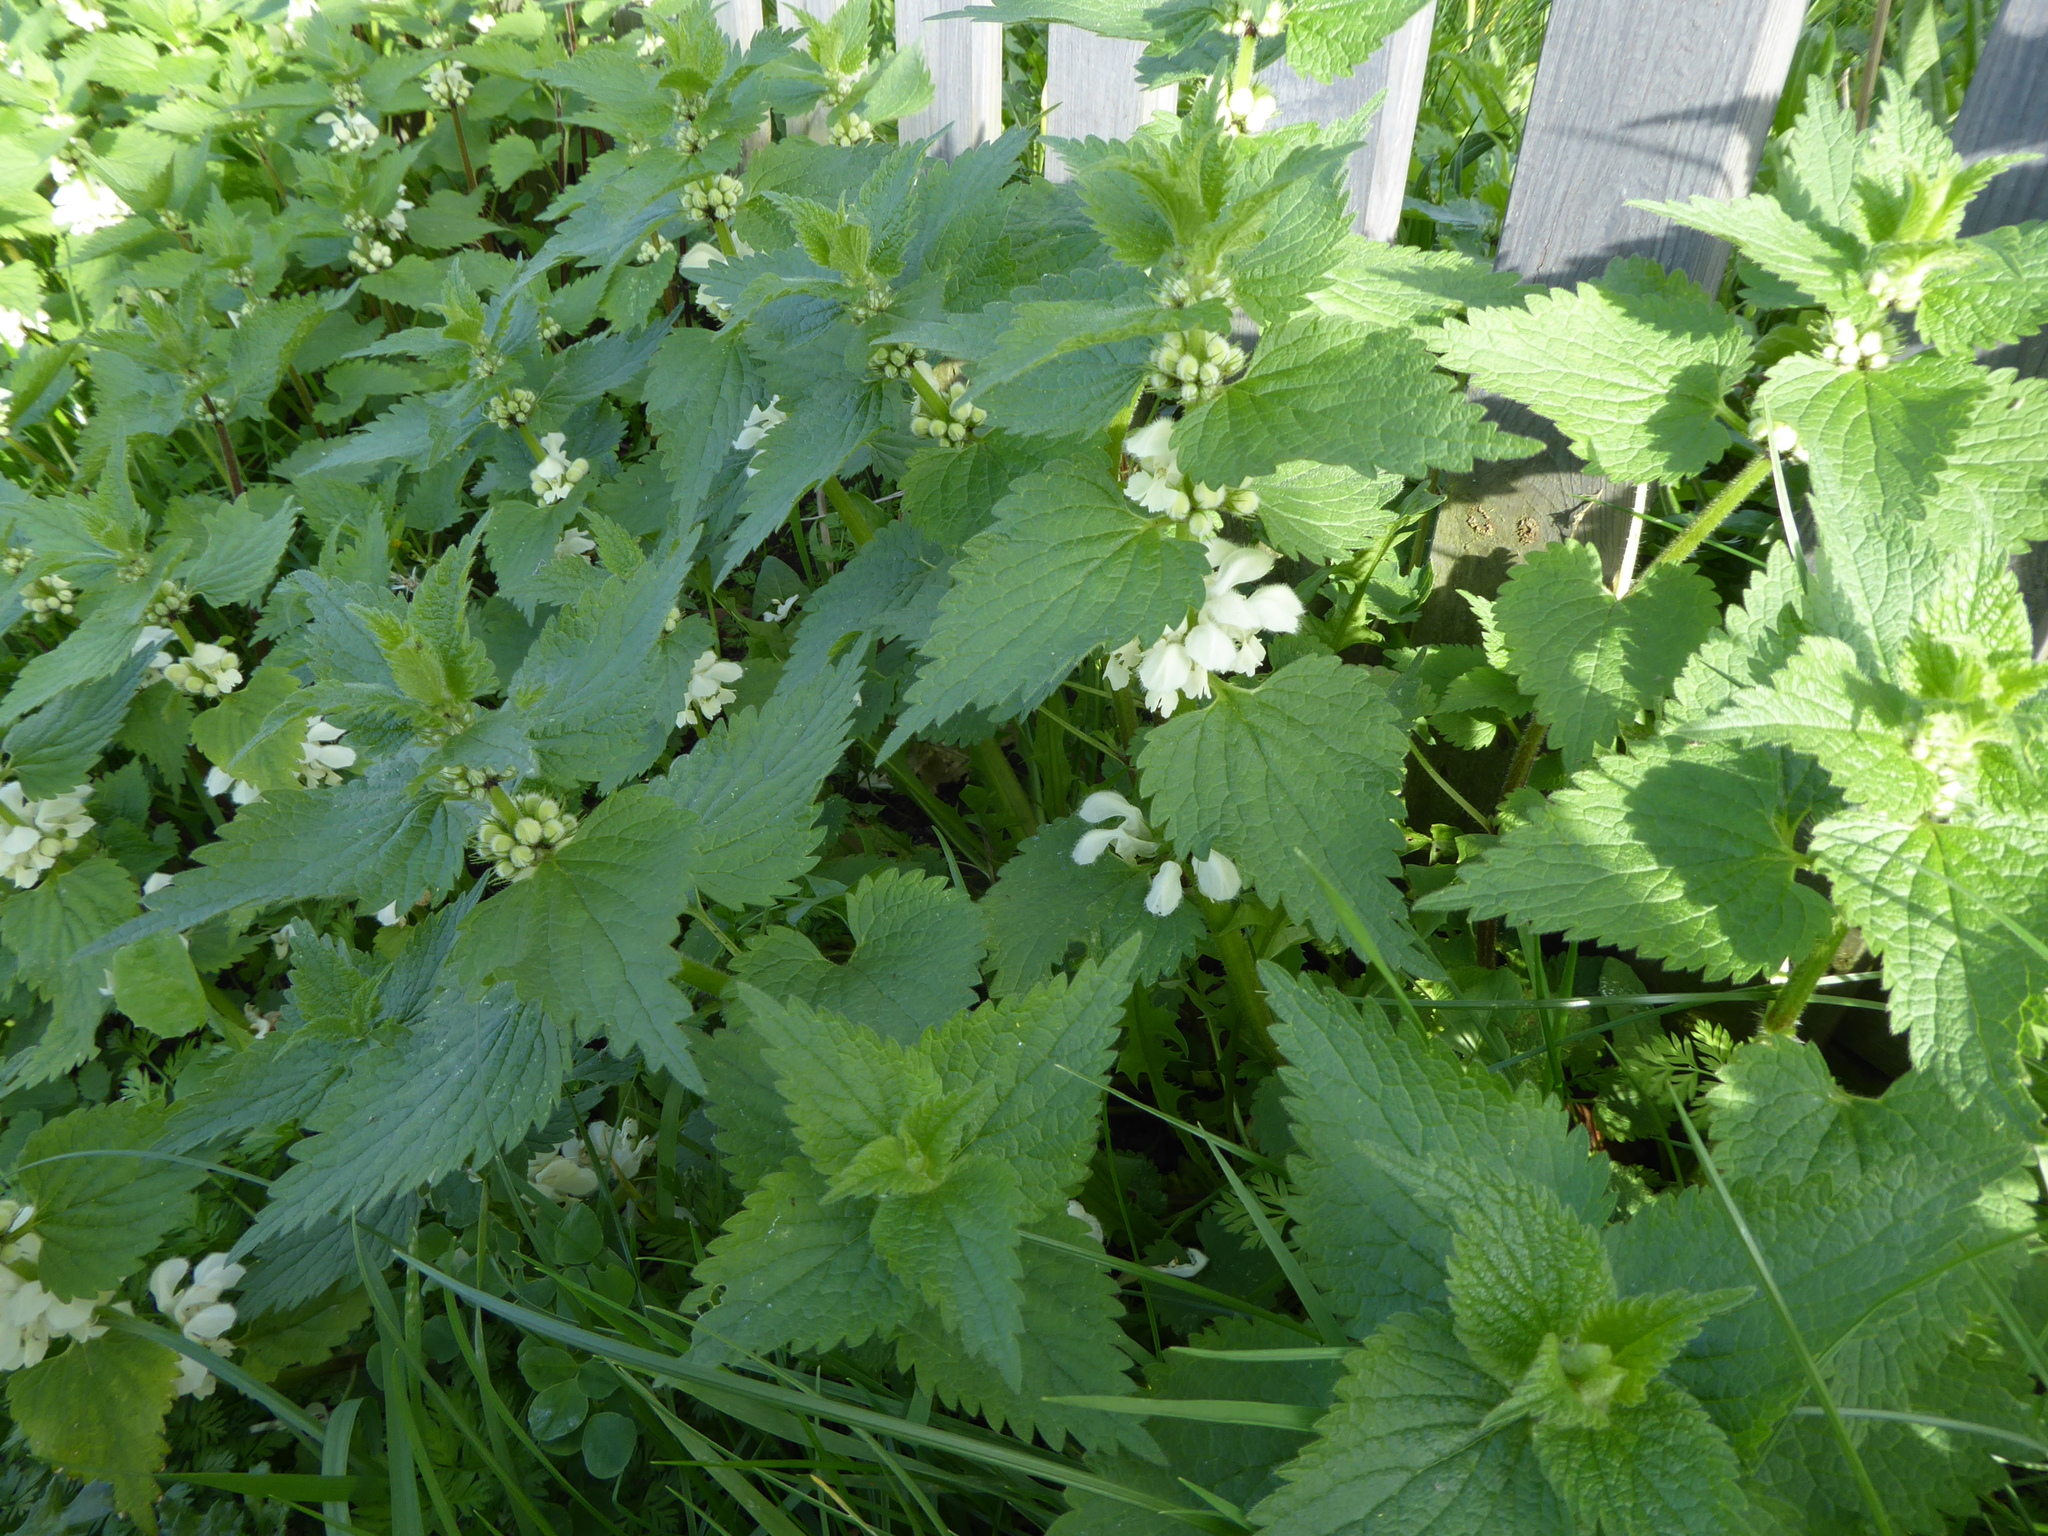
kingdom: Plantae
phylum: Tracheophyta
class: Magnoliopsida
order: Lamiales
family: Lamiaceae
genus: Lamium
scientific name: Lamium album
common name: White dead-nettle
